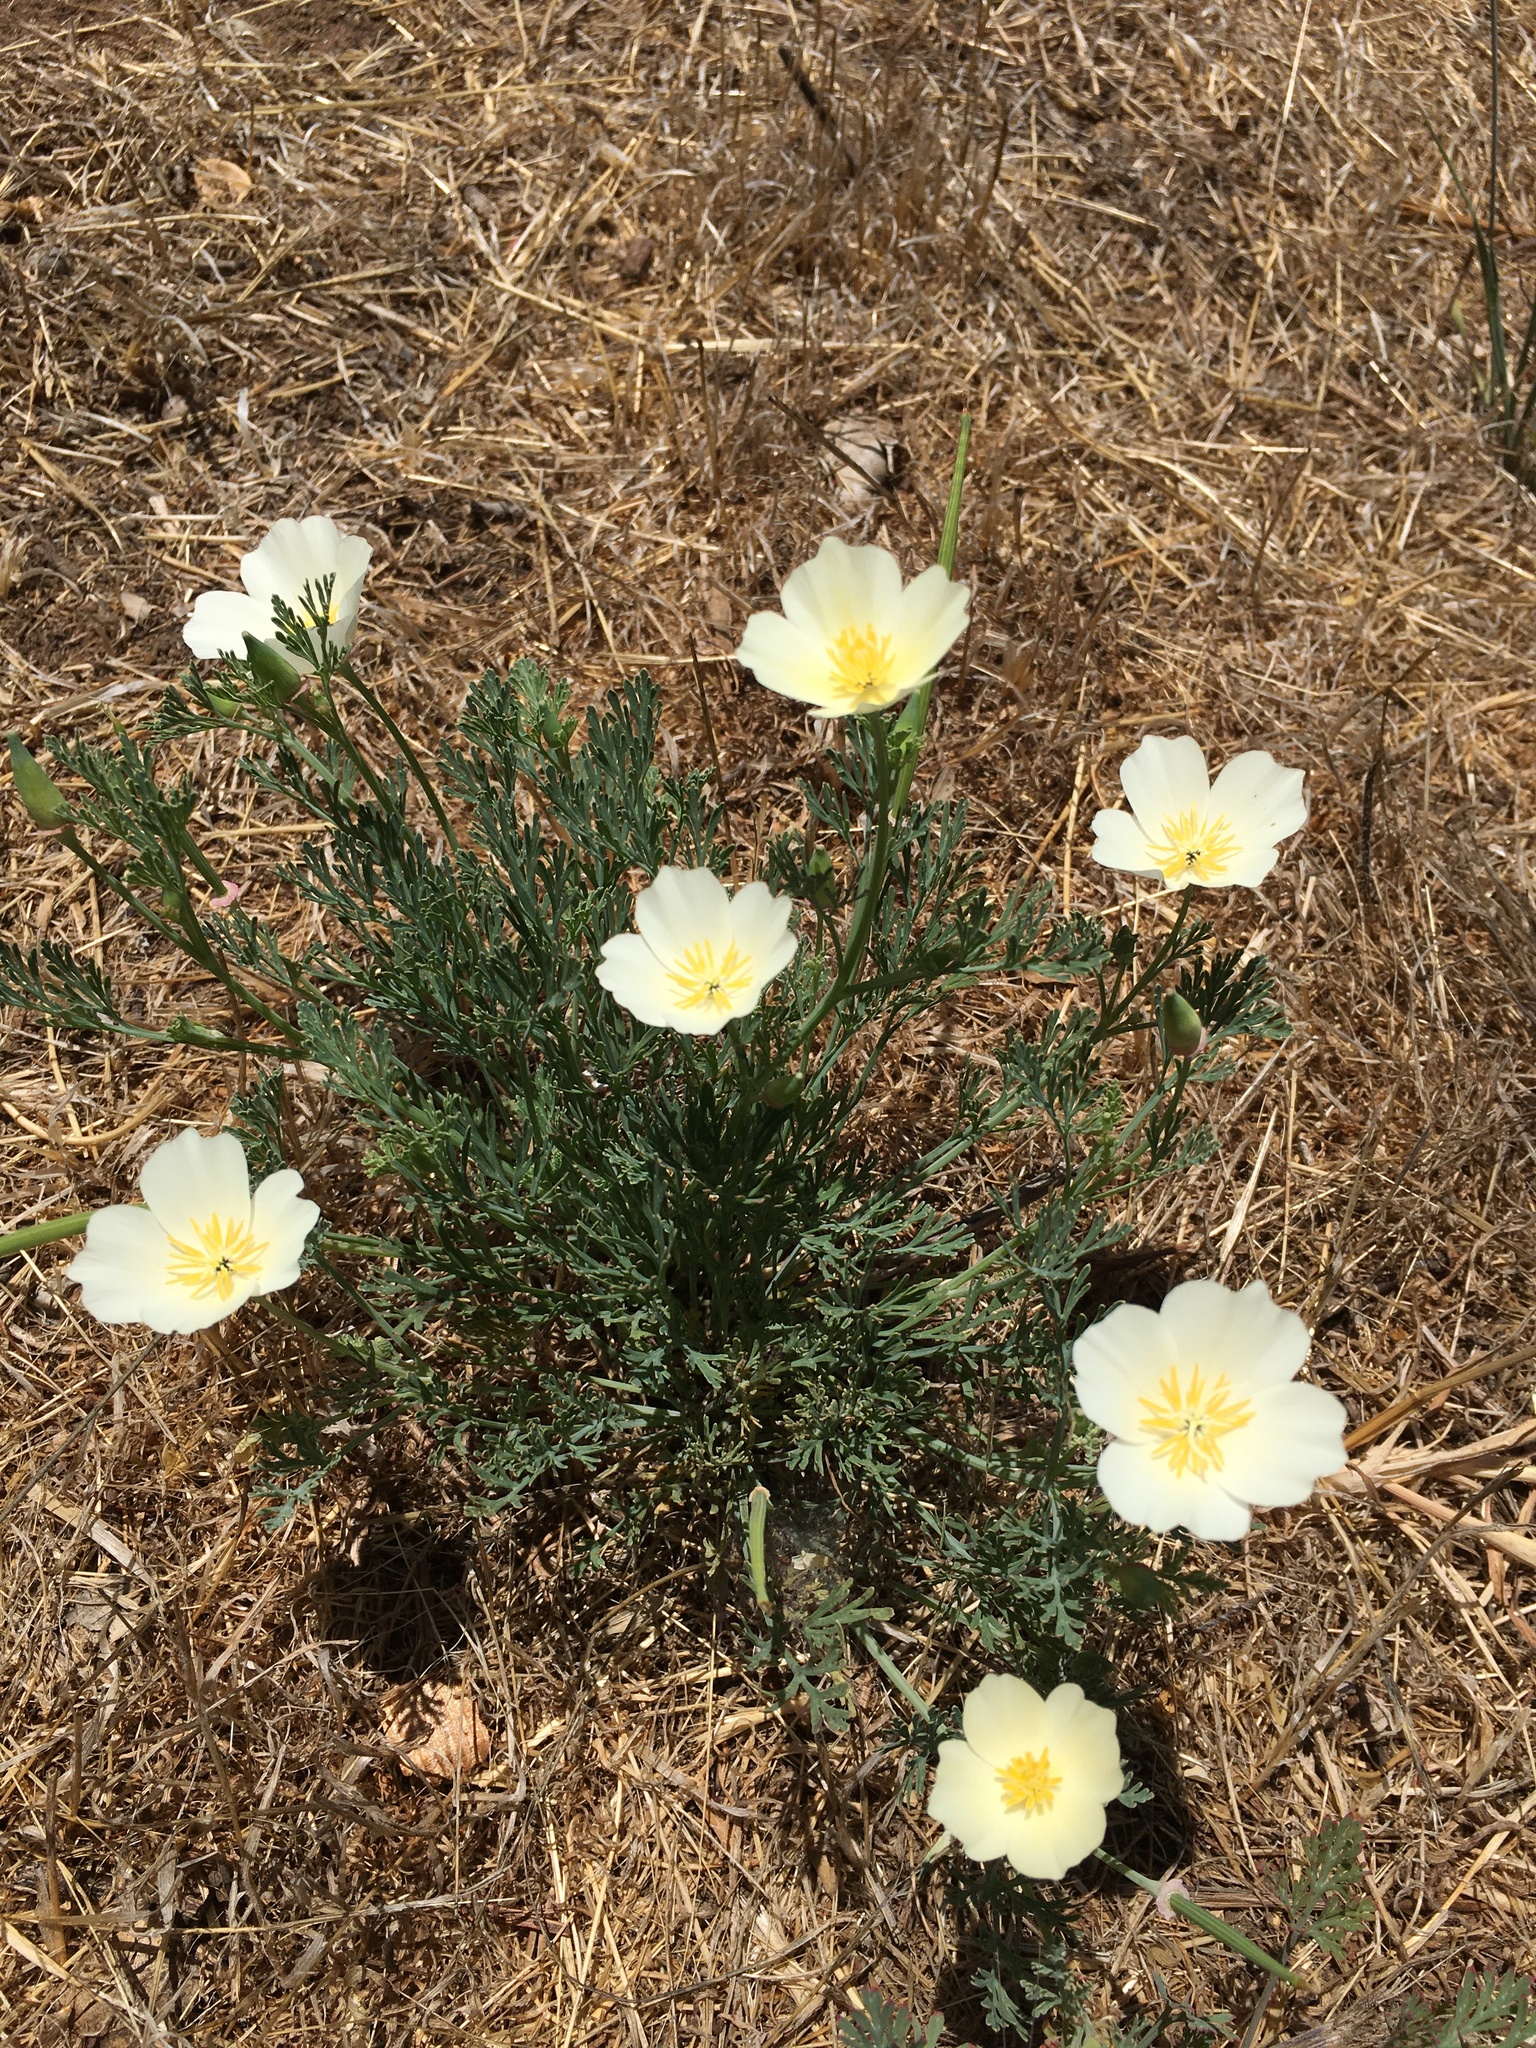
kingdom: Plantae
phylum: Tracheophyta
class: Magnoliopsida
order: Ranunculales
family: Papaveraceae
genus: Eschscholzia
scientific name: Eschscholzia californica
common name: California poppy
